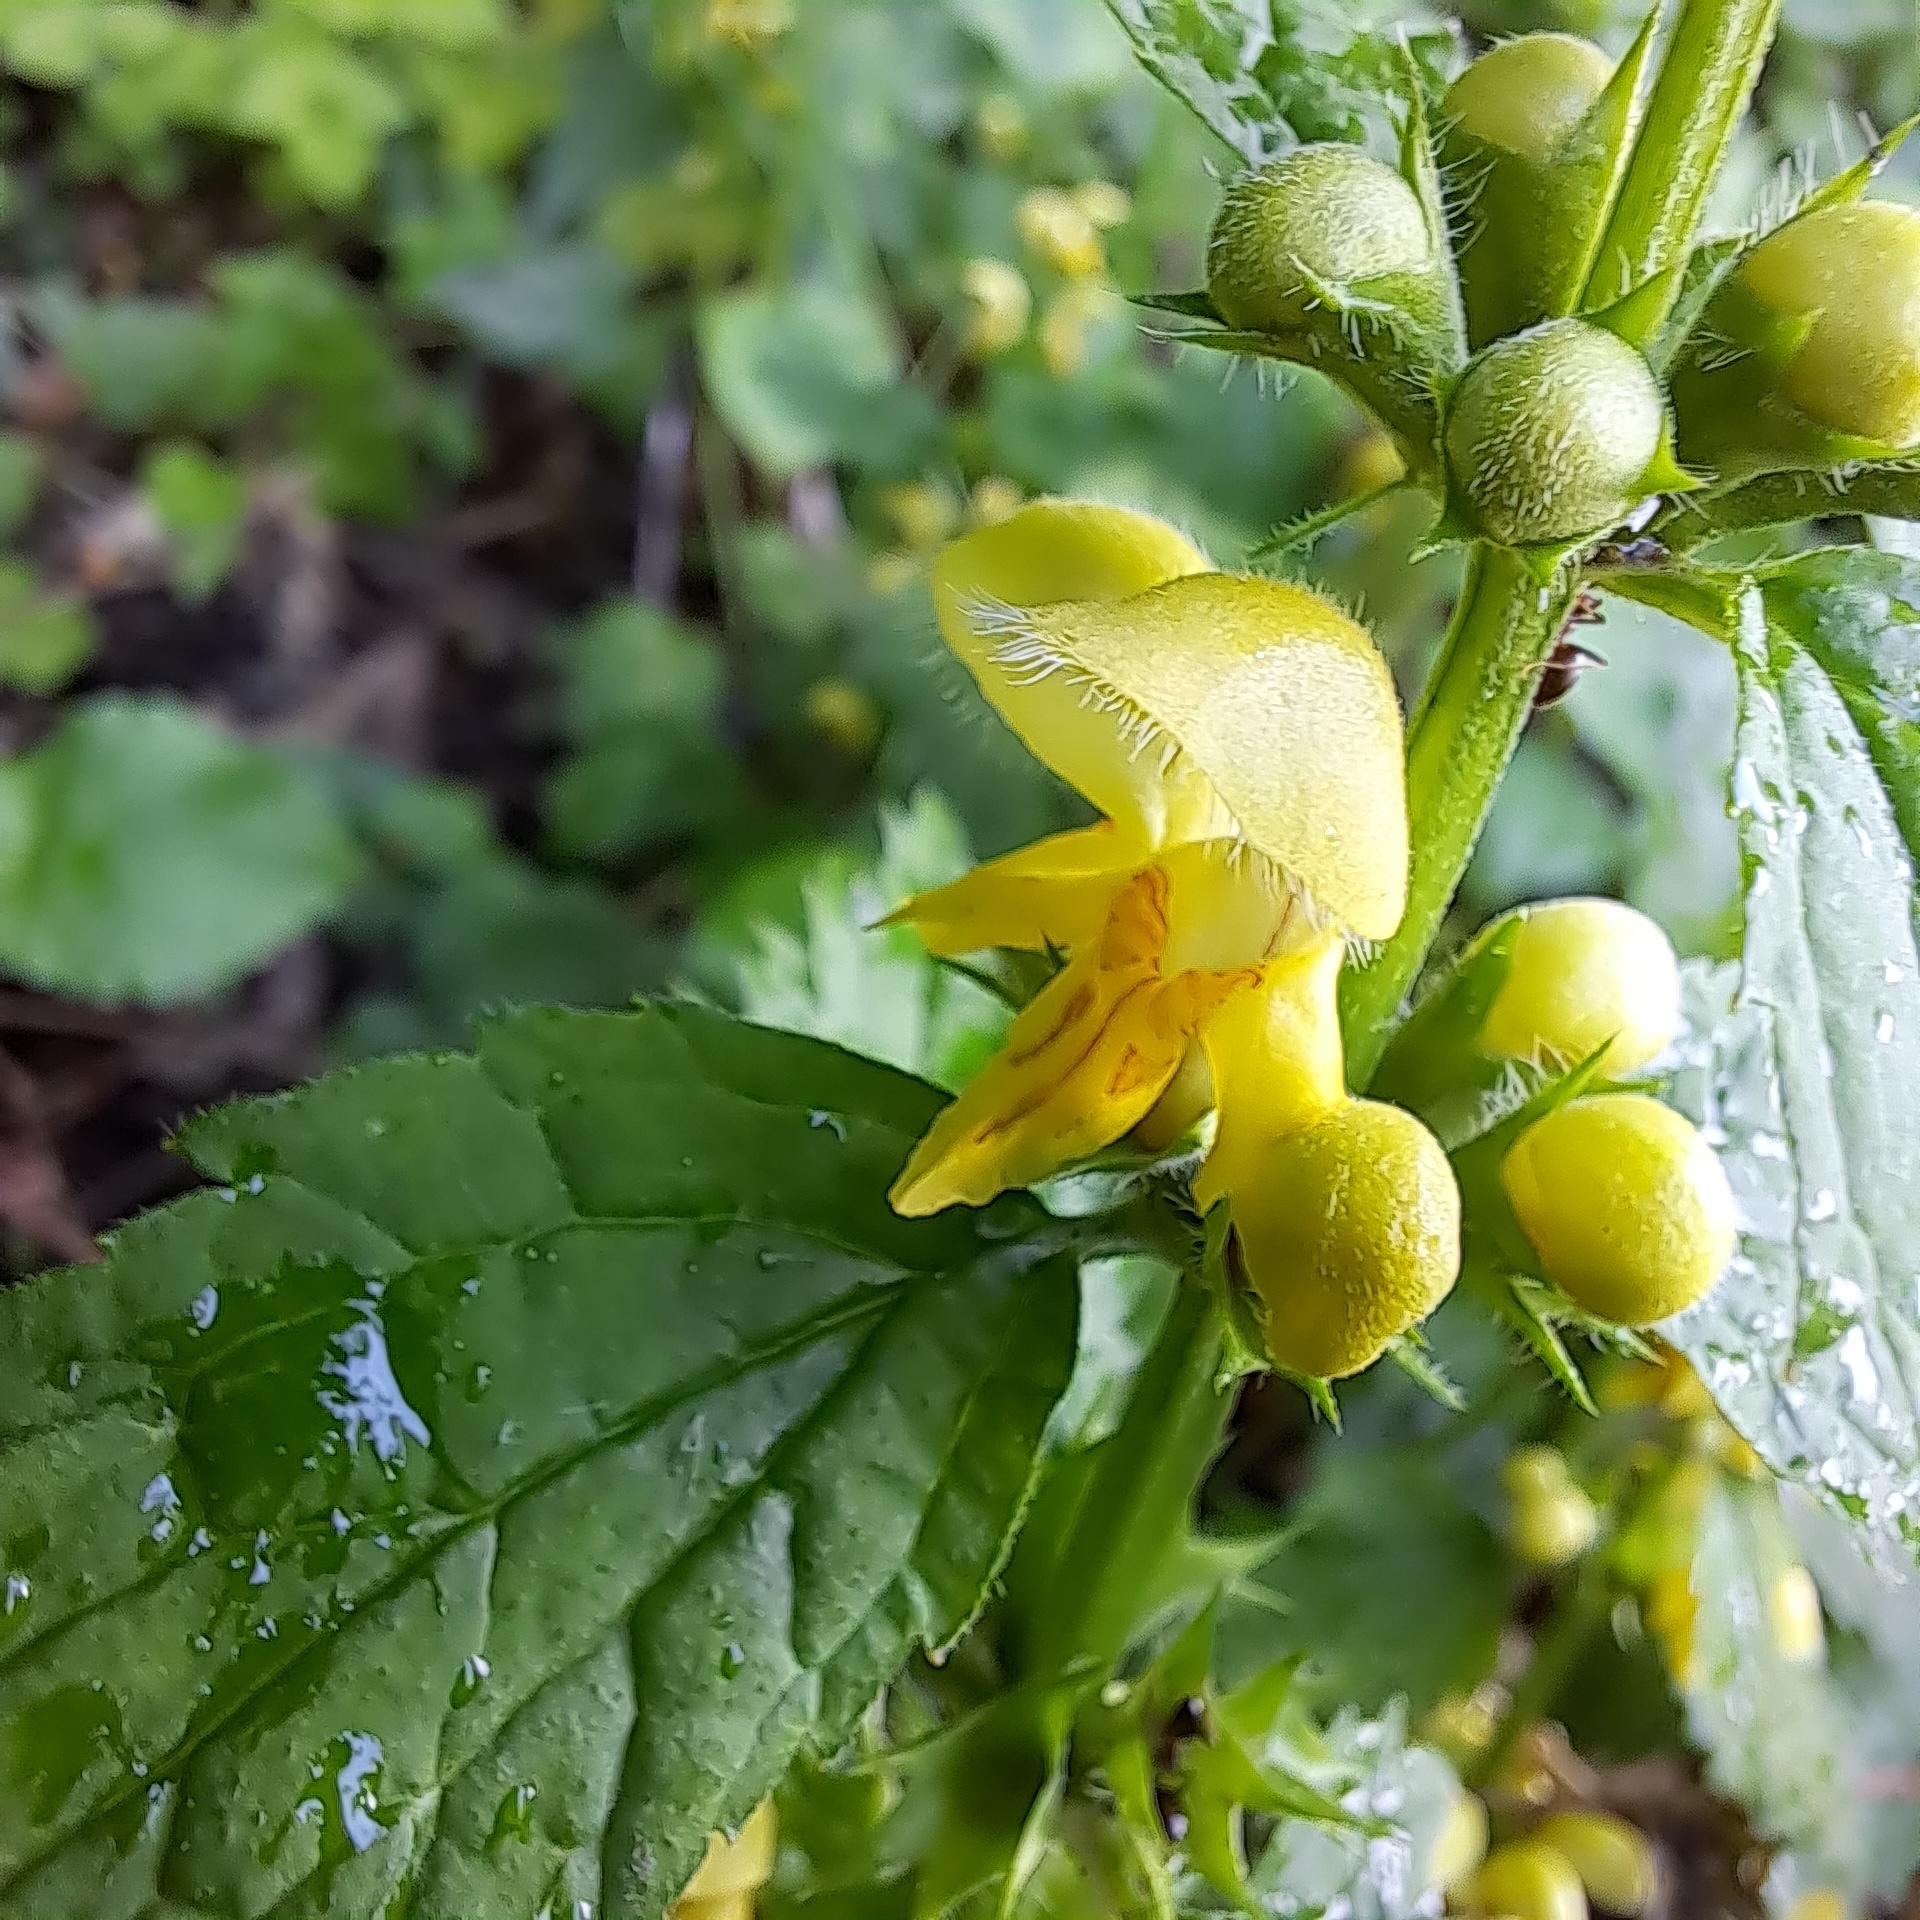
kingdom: Plantae
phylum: Tracheophyta
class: Magnoliopsida
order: Lamiales
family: Lamiaceae
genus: Lamium
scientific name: Lamium galeobdolon
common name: Yellow archangel
